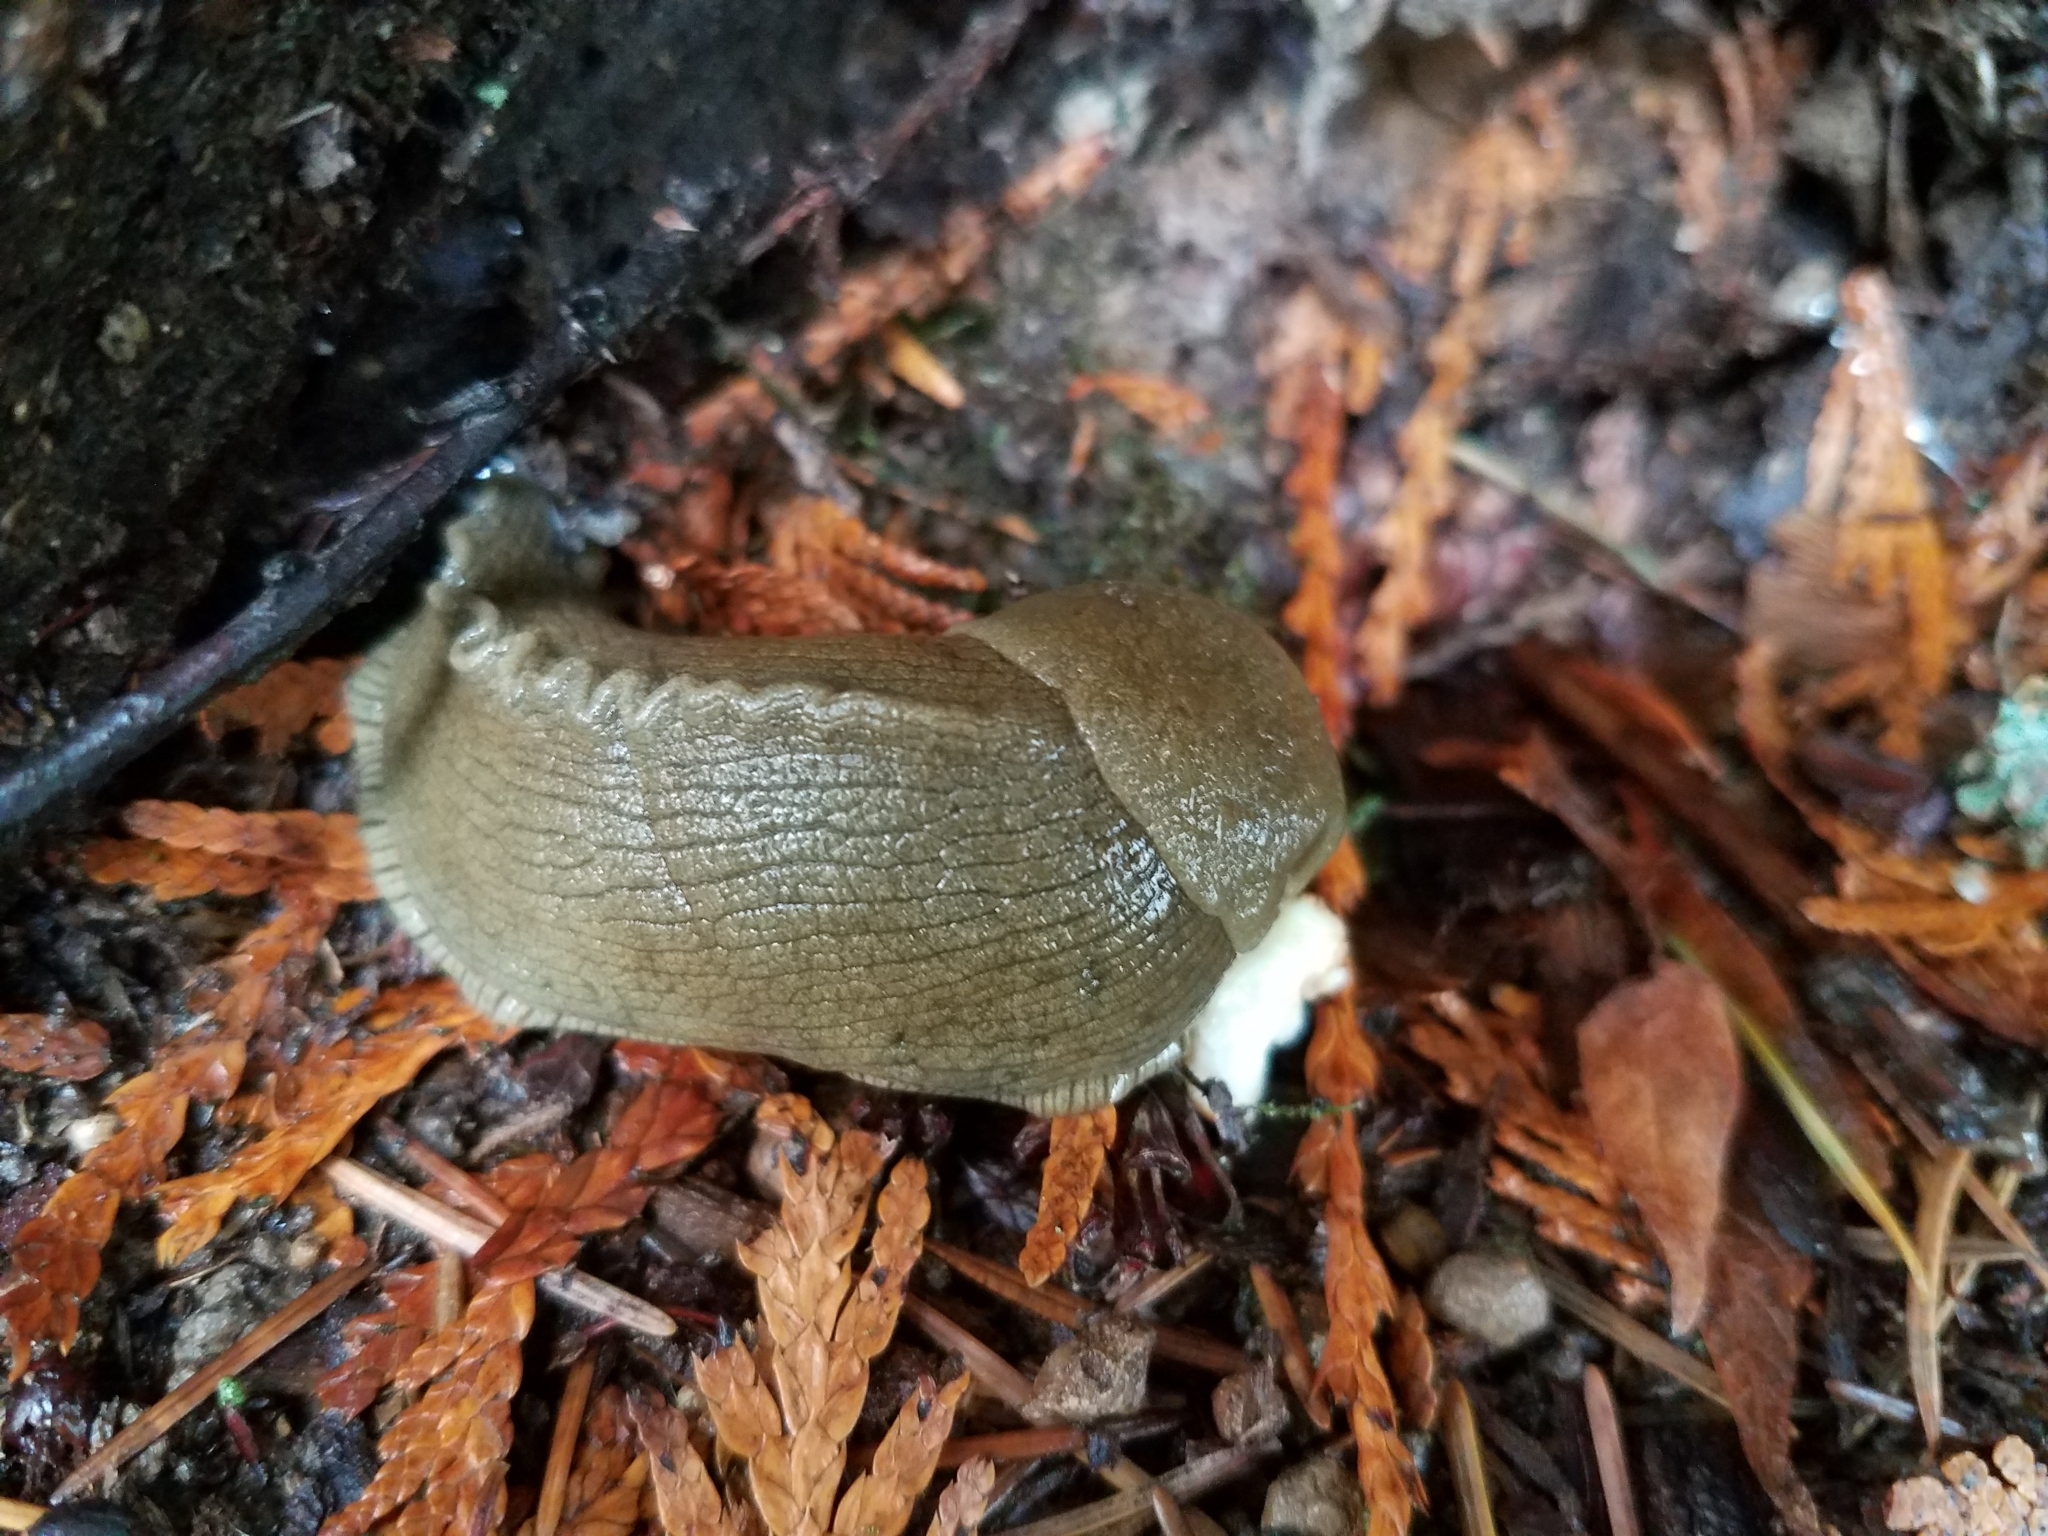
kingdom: Animalia
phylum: Mollusca
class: Gastropoda
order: Stylommatophora
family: Ariolimacidae
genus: Ariolimax
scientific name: Ariolimax columbianus
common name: Pacific banana slug
